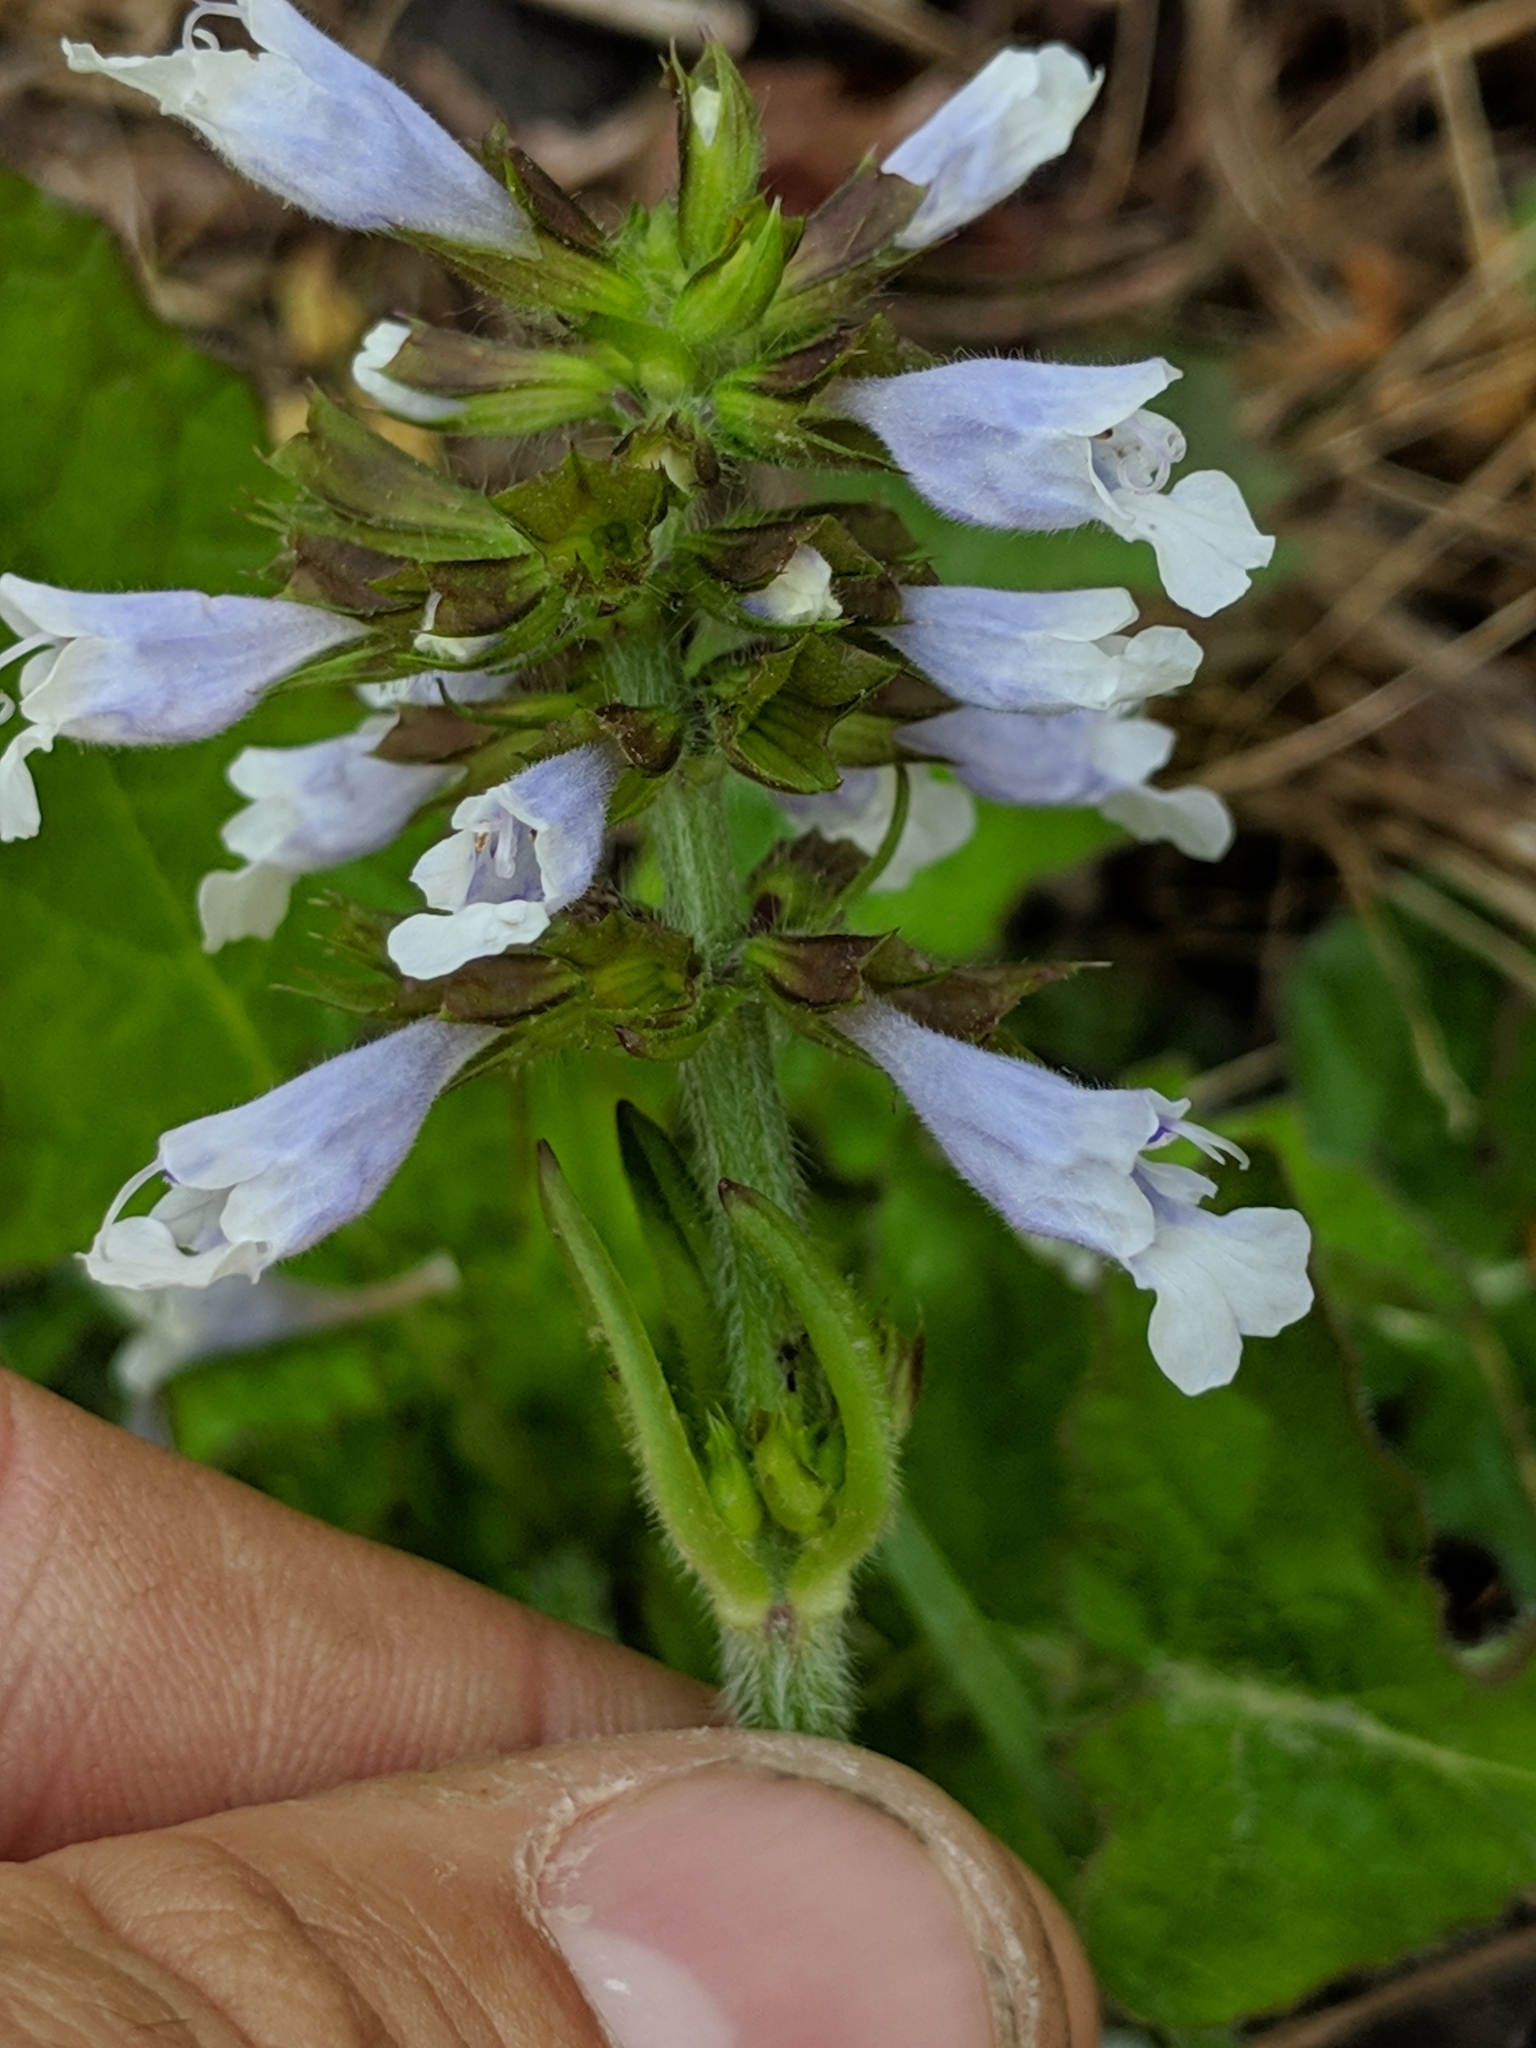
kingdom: Plantae
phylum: Tracheophyta
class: Magnoliopsida
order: Lamiales
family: Lamiaceae
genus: Salvia
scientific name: Salvia lyrata
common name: Cancerweed
